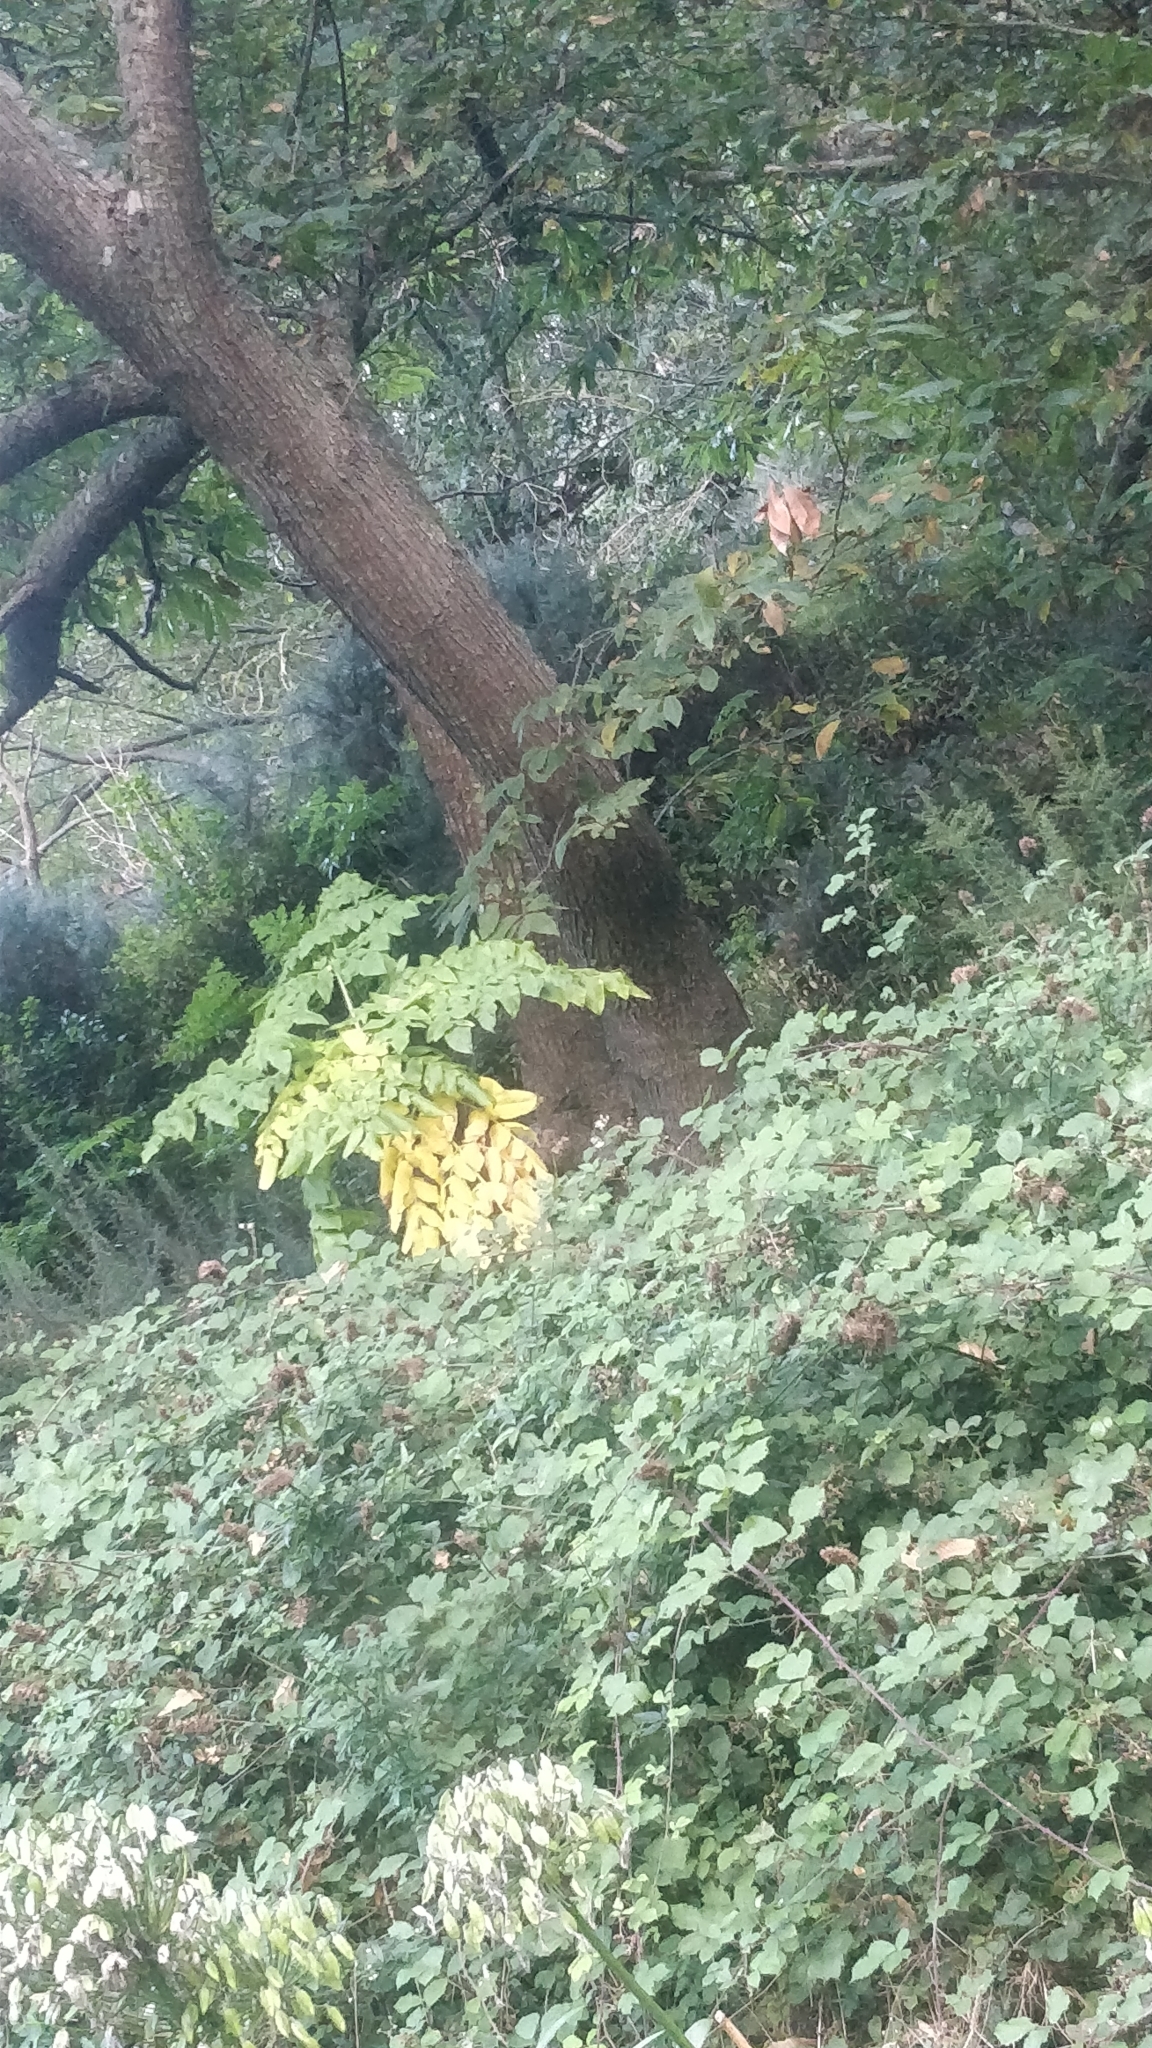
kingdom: Plantae
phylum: Tracheophyta
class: Magnoliopsida
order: Apiales
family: Apiaceae
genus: Daucus
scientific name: Daucus decipiens
